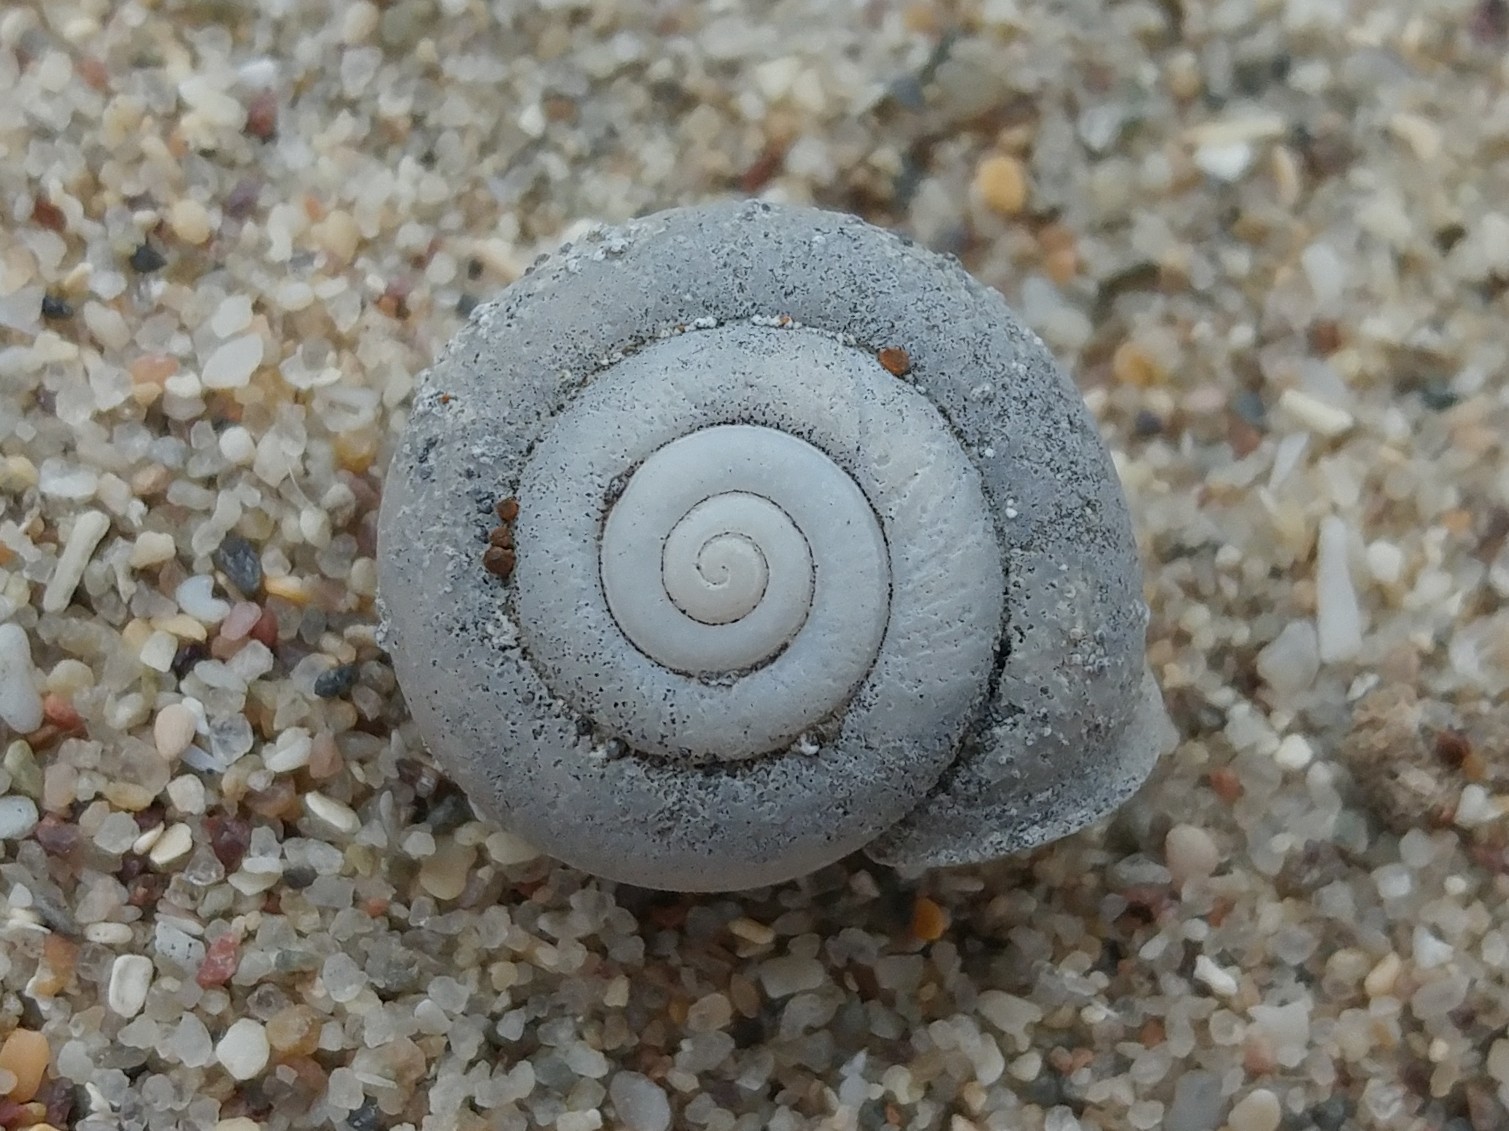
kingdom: Animalia
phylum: Mollusca
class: Gastropoda
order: Stylommatophora
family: Xanthonychidae
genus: Micrarionta
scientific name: Micrarionta sodalis
